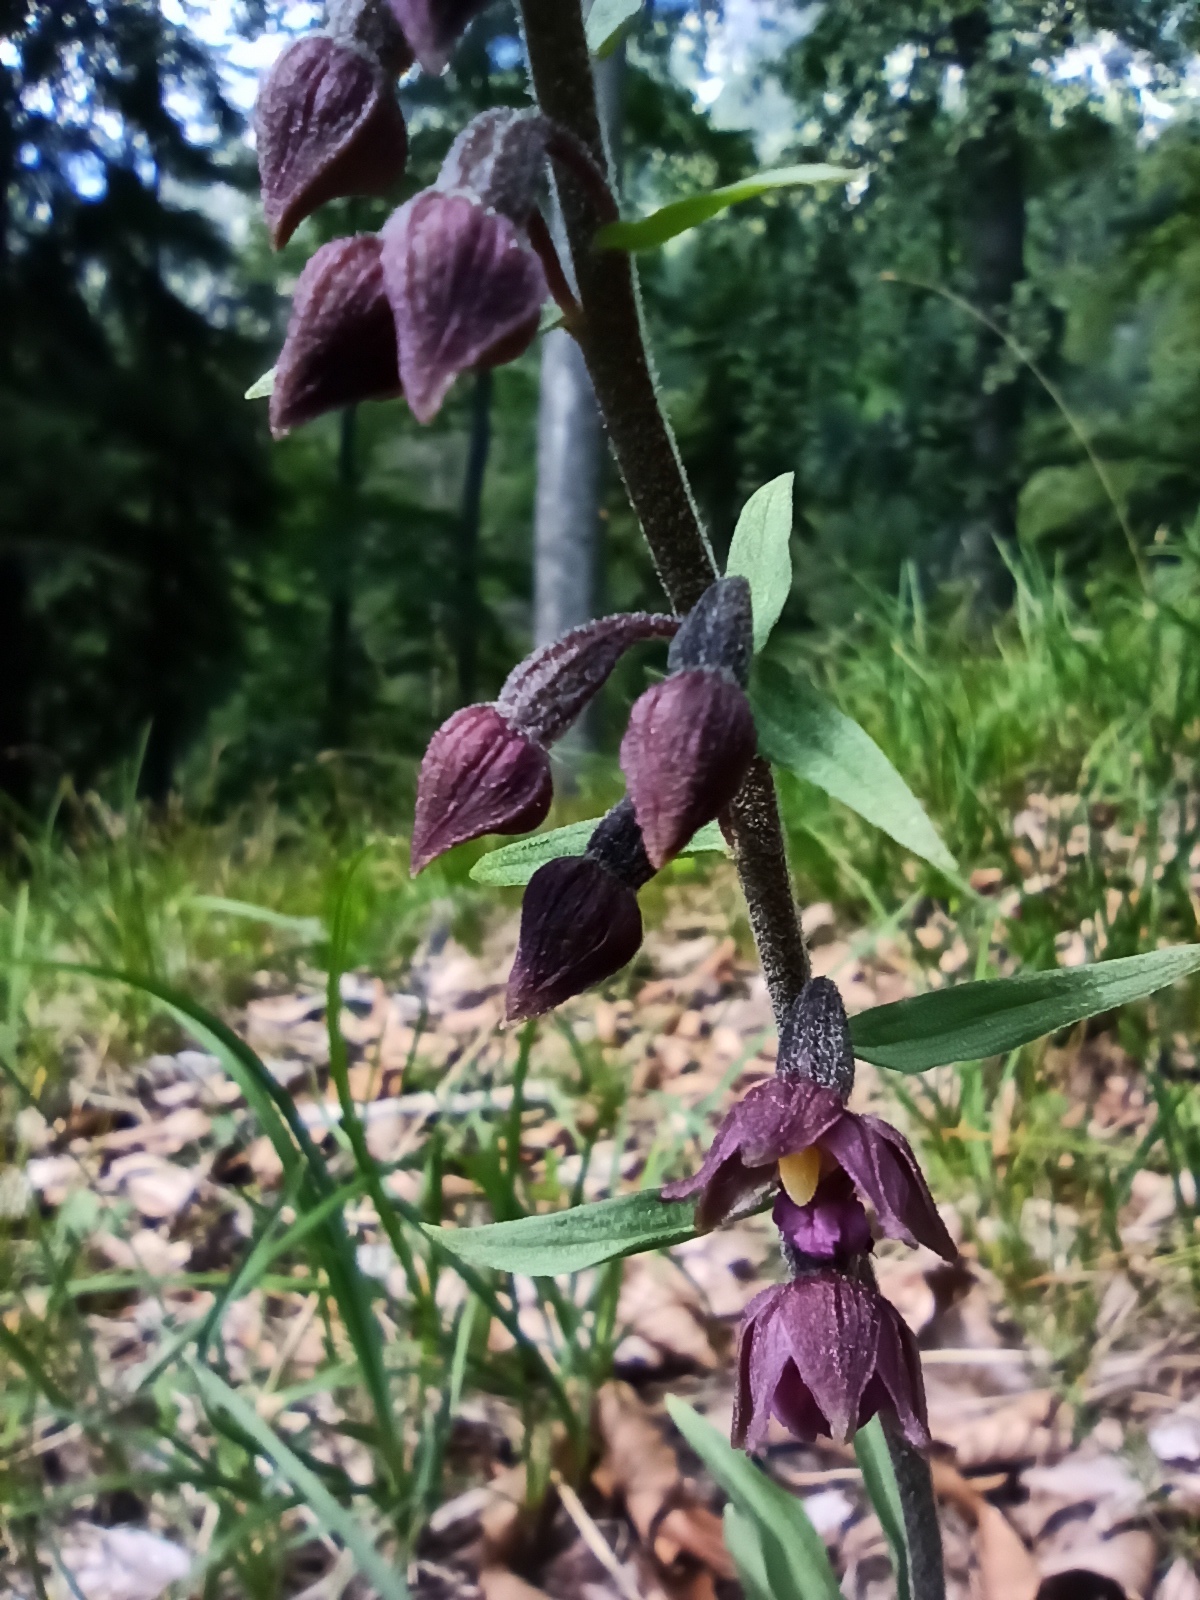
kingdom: Plantae
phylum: Tracheophyta
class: Liliopsida
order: Asparagales
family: Orchidaceae
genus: Epipactis
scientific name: Epipactis atrorubens
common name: Dark-red helleborine
